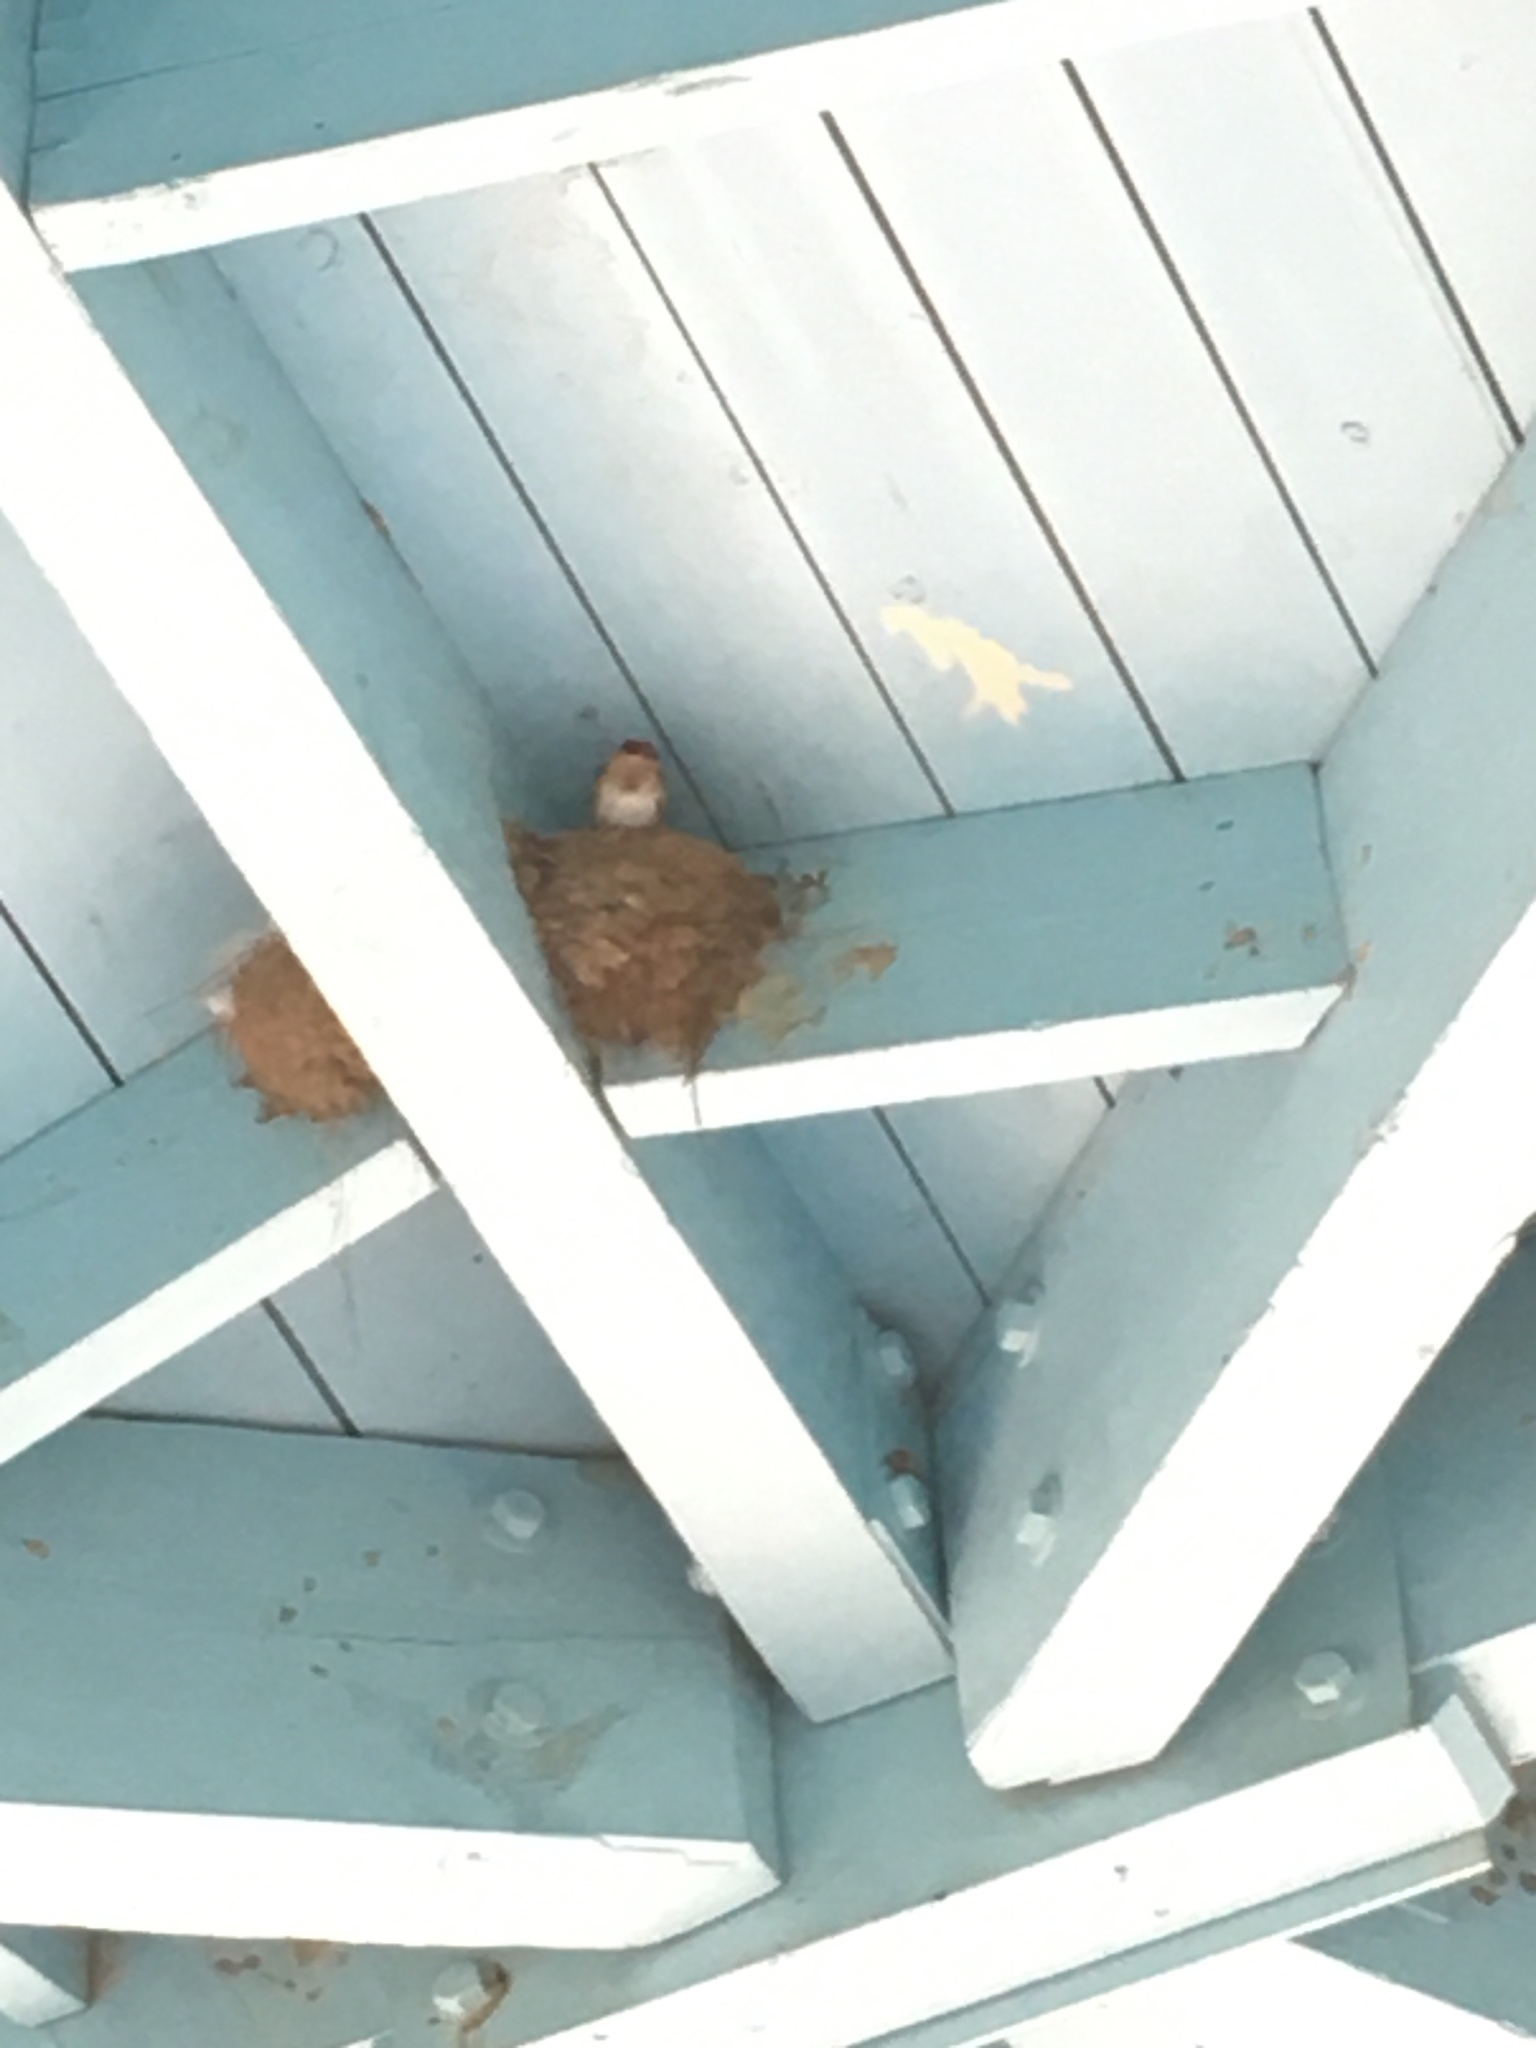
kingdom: Animalia
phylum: Chordata
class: Aves
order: Passeriformes
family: Hirundinidae
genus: Hirundo
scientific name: Hirundo rustica
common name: Barn swallow
